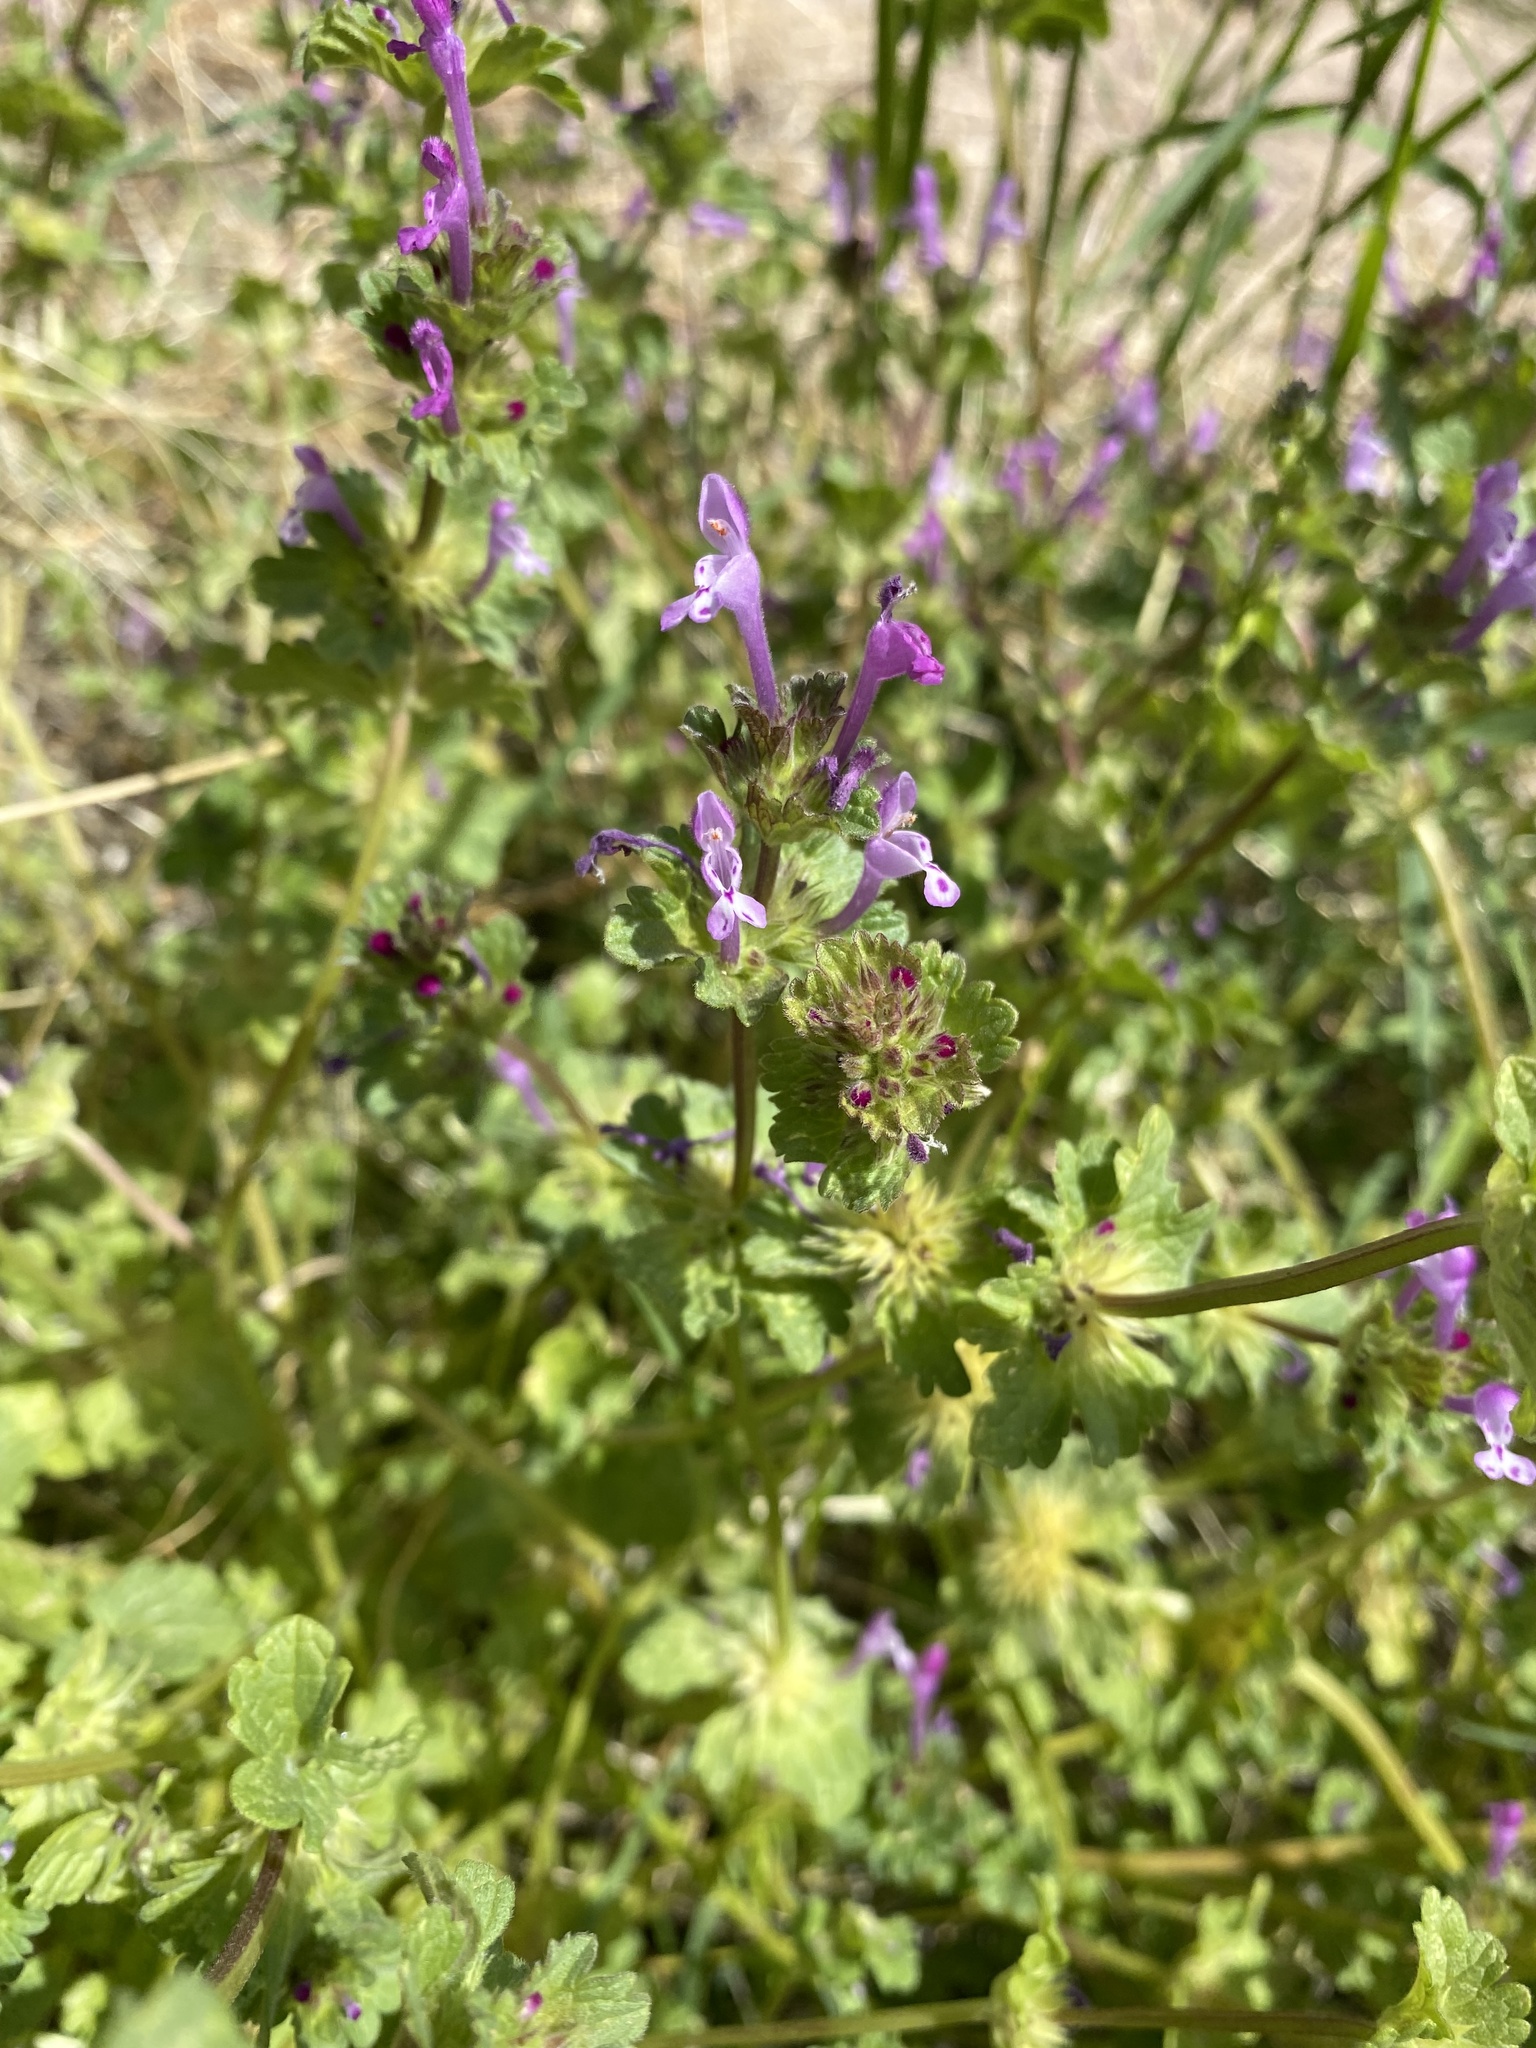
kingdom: Plantae
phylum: Tracheophyta
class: Magnoliopsida
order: Lamiales
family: Lamiaceae
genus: Lamium
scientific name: Lamium amplexicaule
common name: Henbit dead-nettle
